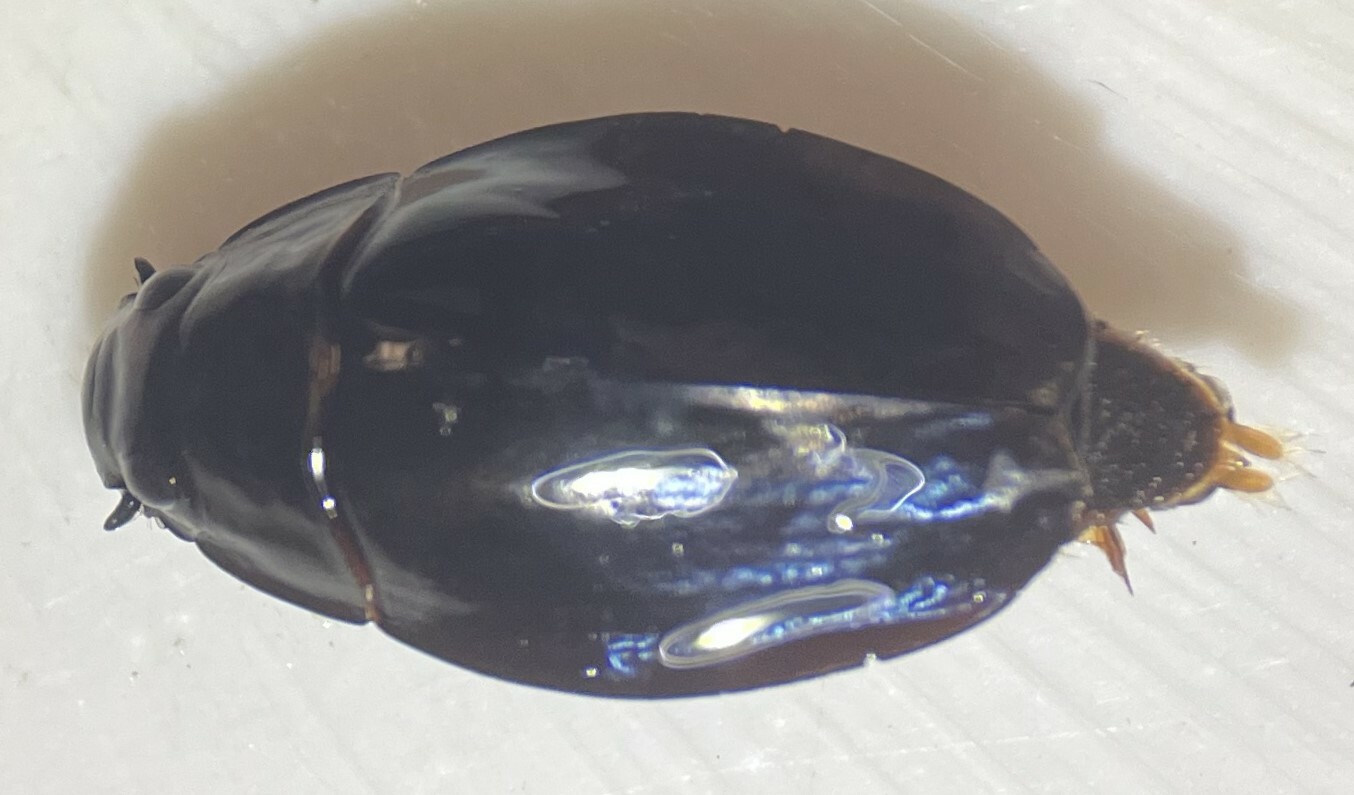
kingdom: Animalia
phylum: Arthropoda
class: Insecta
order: Coleoptera
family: Gyrinidae
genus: Dineutus
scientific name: Dineutus shorti
